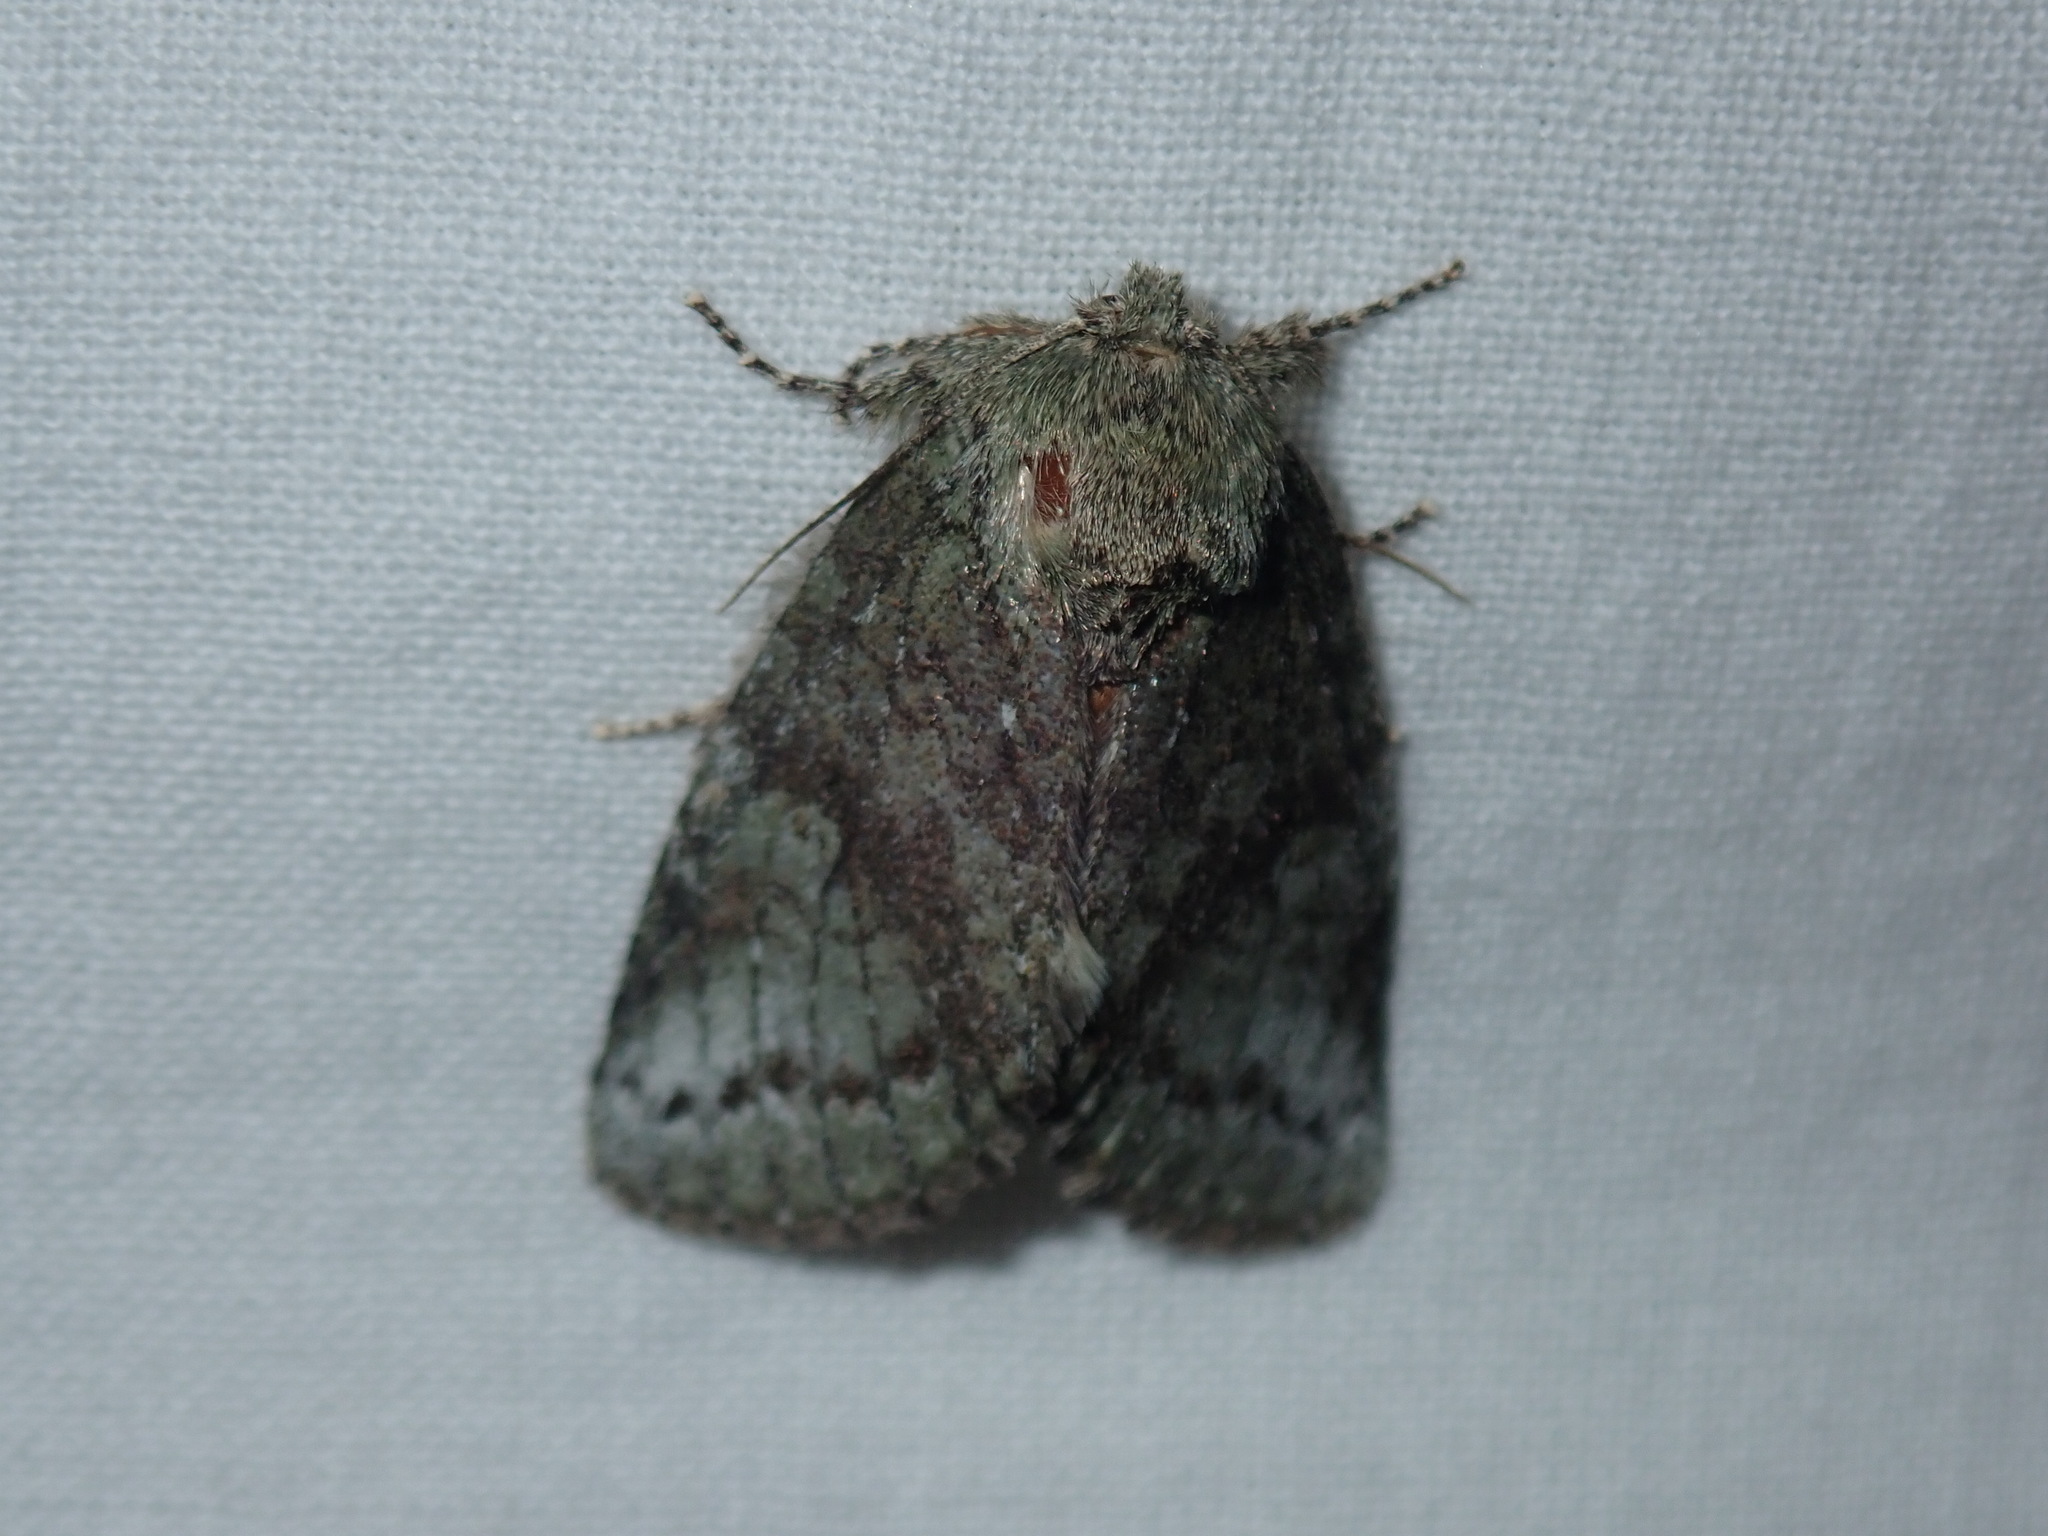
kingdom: Animalia
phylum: Arthropoda
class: Insecta
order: Lepidoptera
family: Notodontidae
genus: Disphragis
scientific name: Disphragis Cecrita guttivitta
